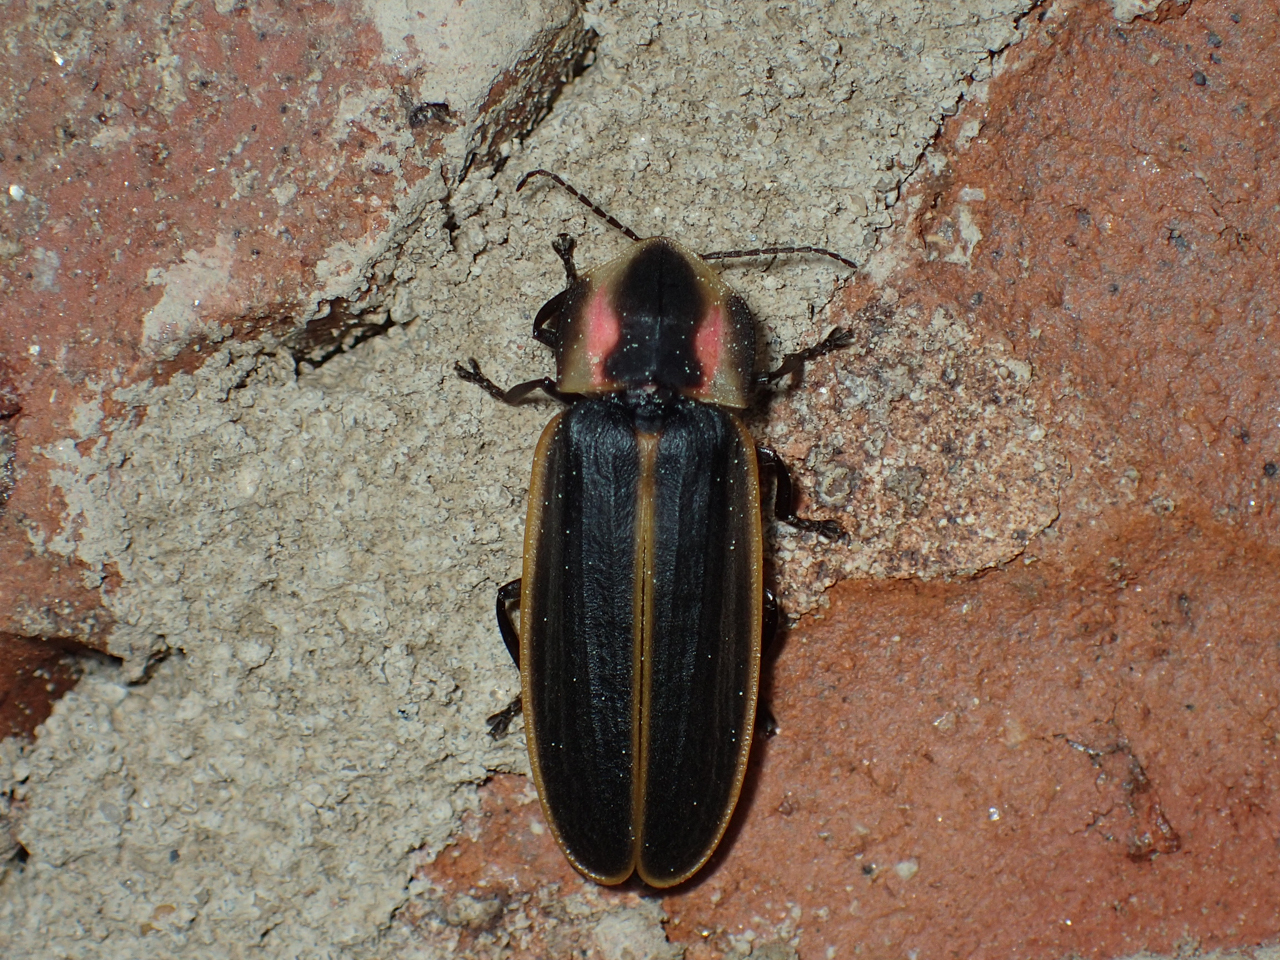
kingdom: Animalia
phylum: Arthropoda
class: Insecta
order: Coleoptera
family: Lampyridae
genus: Pyractomena
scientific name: Pyractomena borealis
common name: Northern firefly
